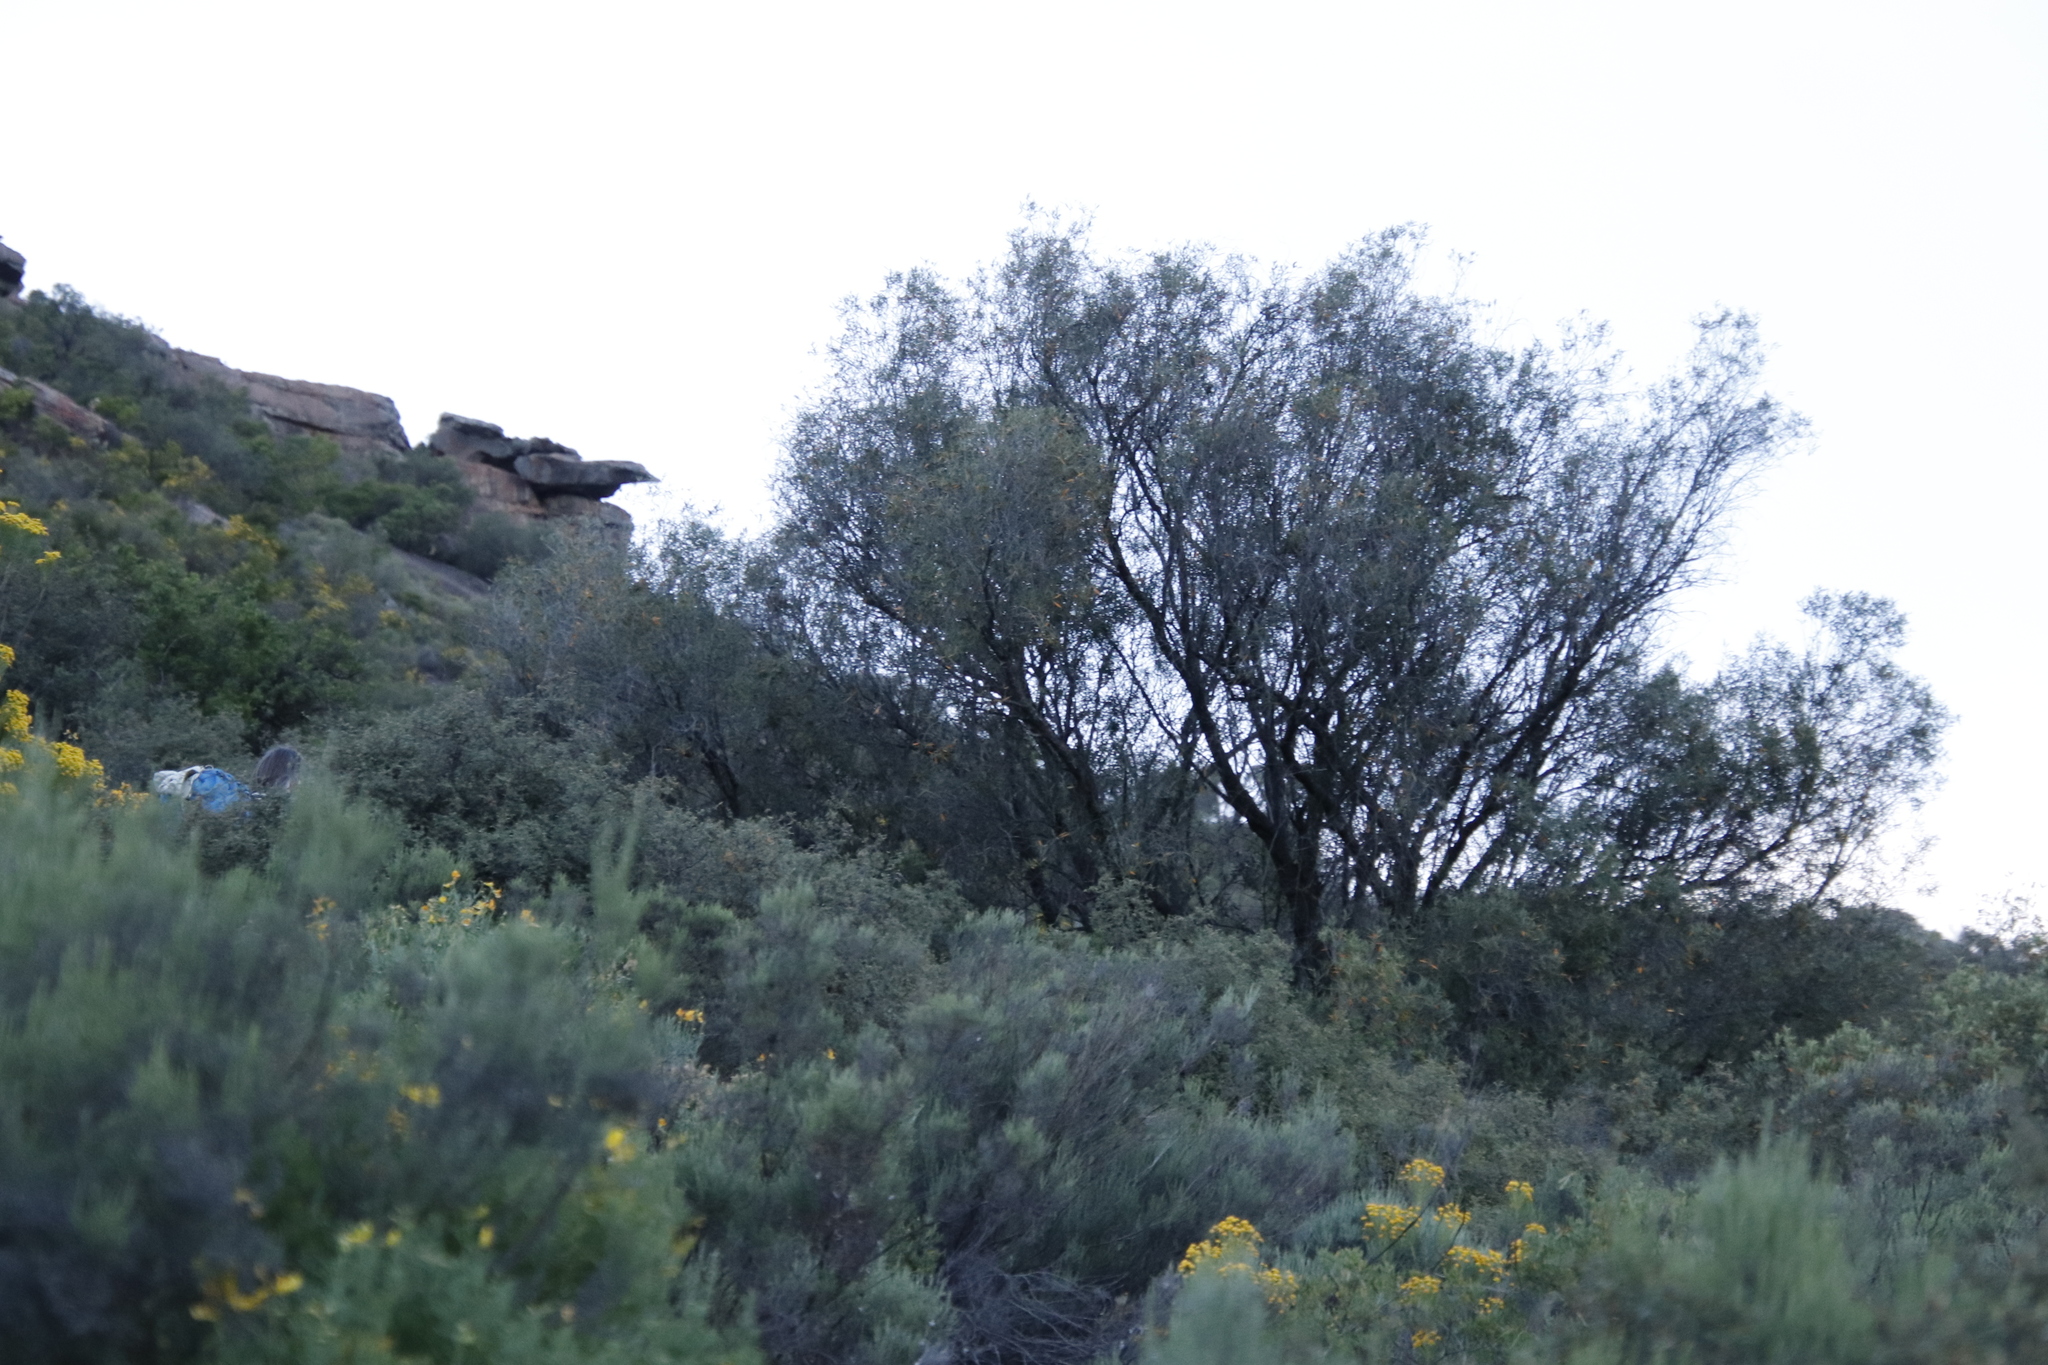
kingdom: Plantae
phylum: Tracheophyta
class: Magnoliopsida
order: Lamiales
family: Oleaceae
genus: Olea
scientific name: Olea europaea
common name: Olive
